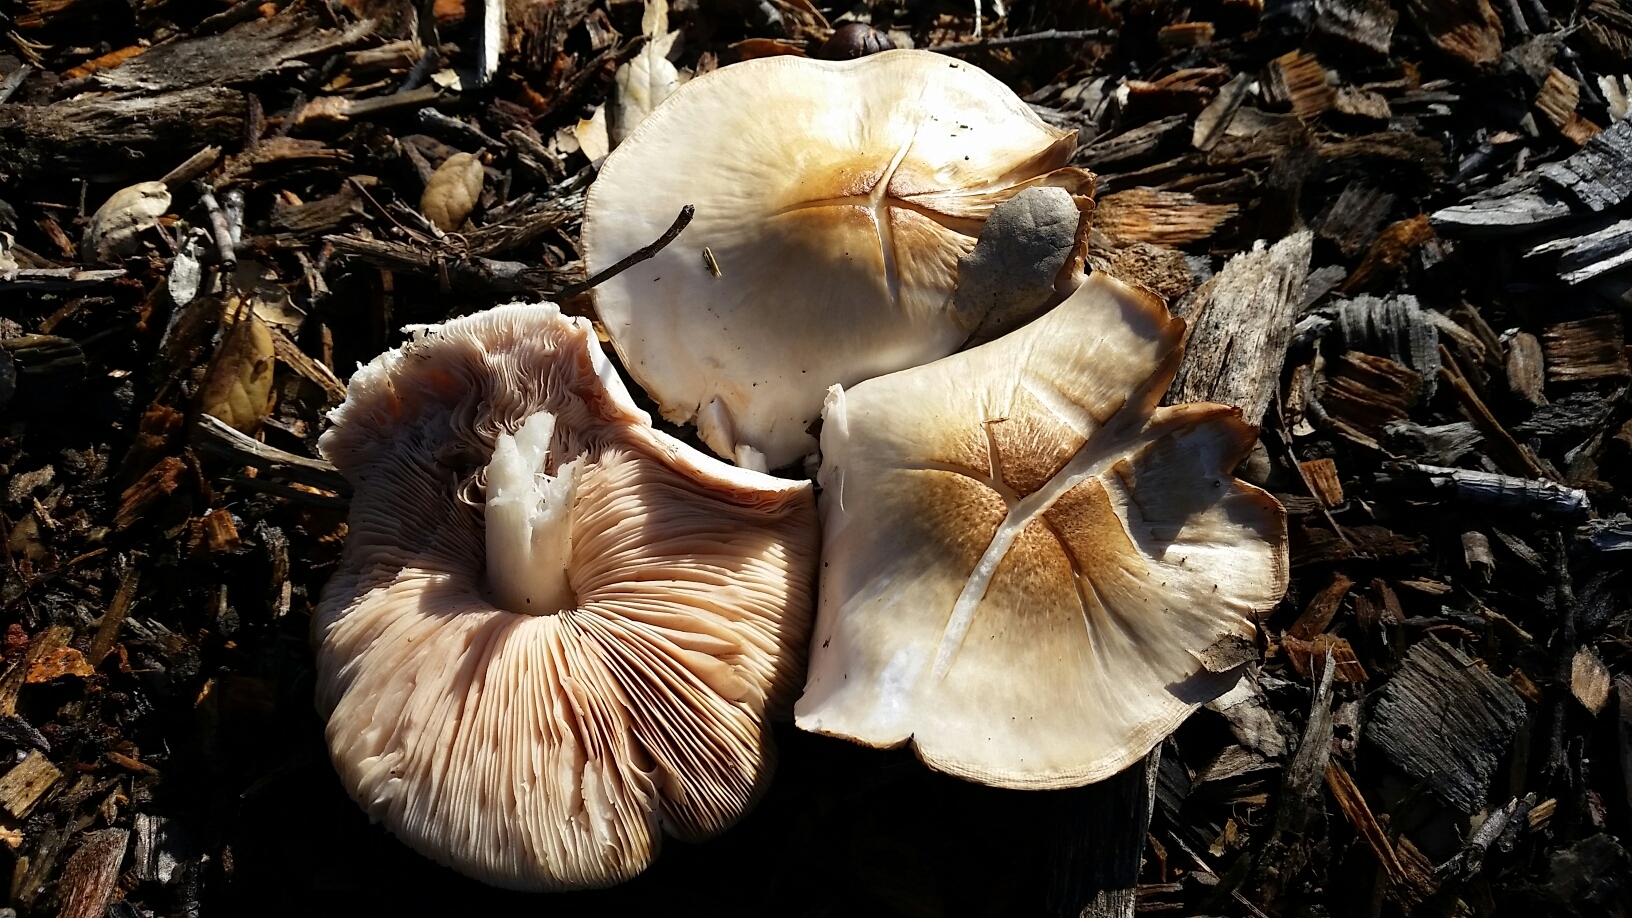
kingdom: Fungi
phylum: Basidiomycota
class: Agaricomycetes
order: Agaricales
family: Pluteaceae
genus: Volvopluteus
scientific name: Volvopluteus gloiocephalus
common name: Stubble rosegill
